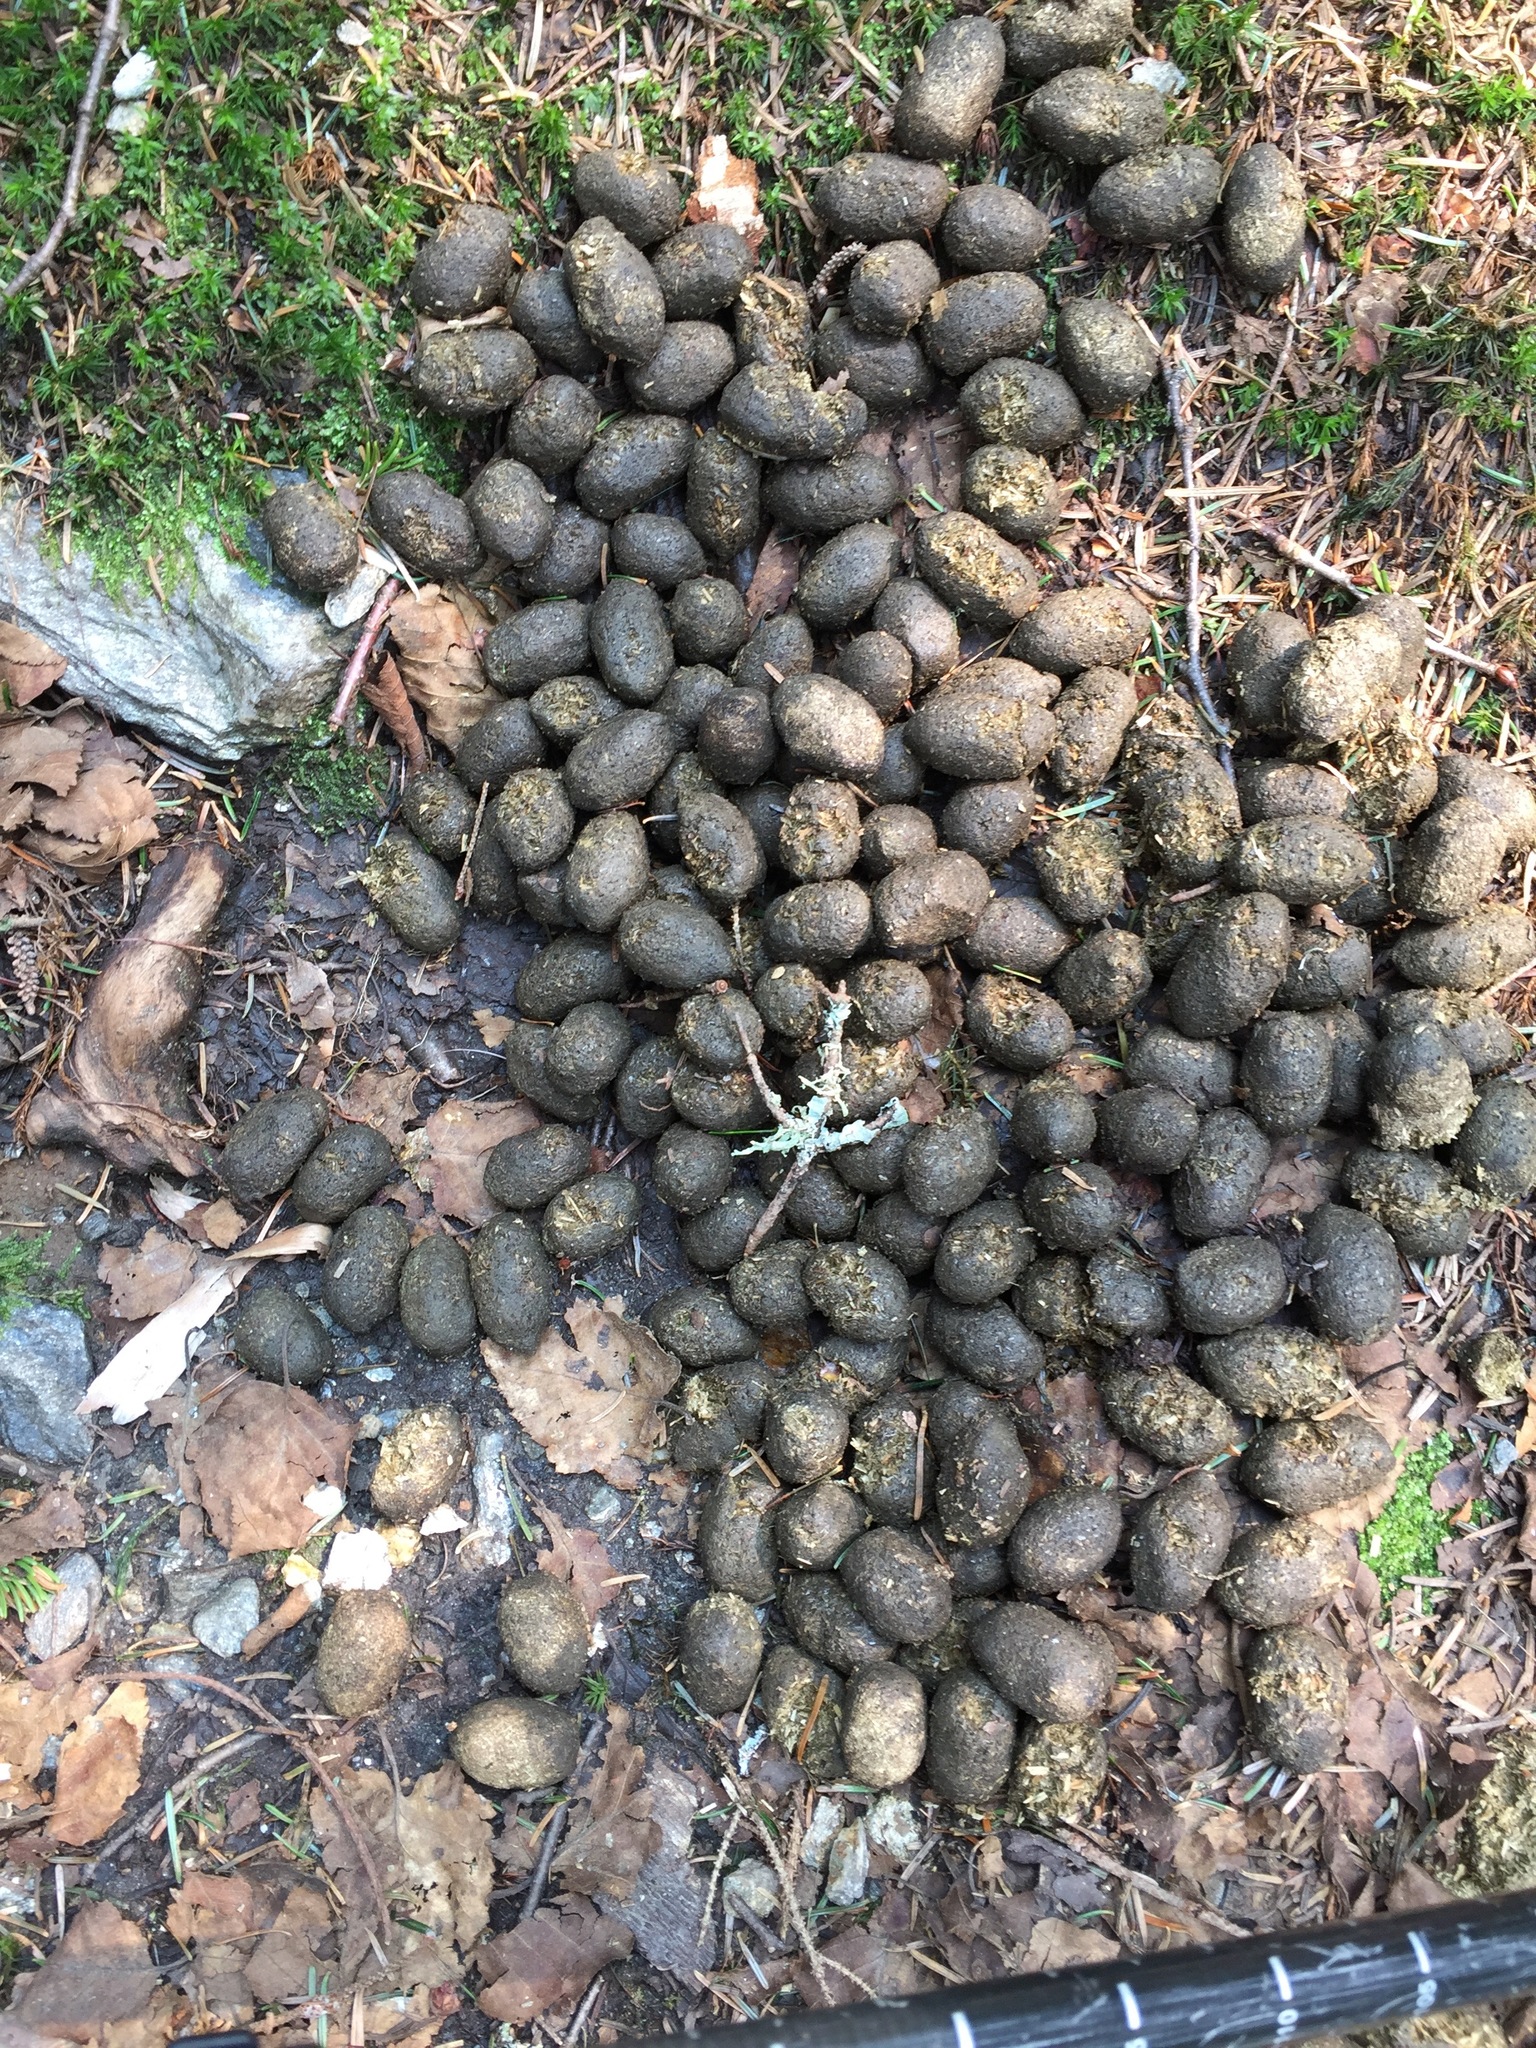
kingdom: Animalia
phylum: Chordata
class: Mammalia
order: Artiodactyla
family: Cervidae
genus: Alces
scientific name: Alces alces
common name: Moose
